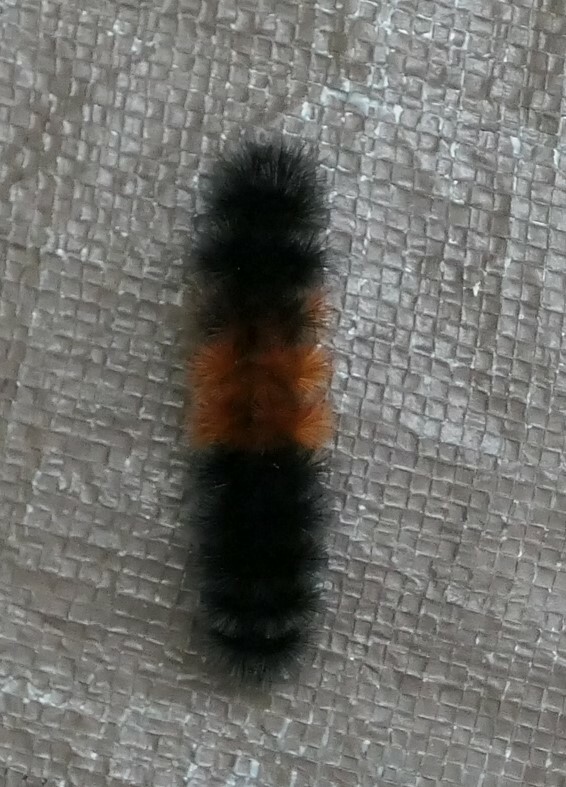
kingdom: Animalia
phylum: Arthropoda
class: Insecta
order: Lepidoptera
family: Erebidae
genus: Pyrrharctia
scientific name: Pyrrharctia isabella
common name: Isabella tiger moth
